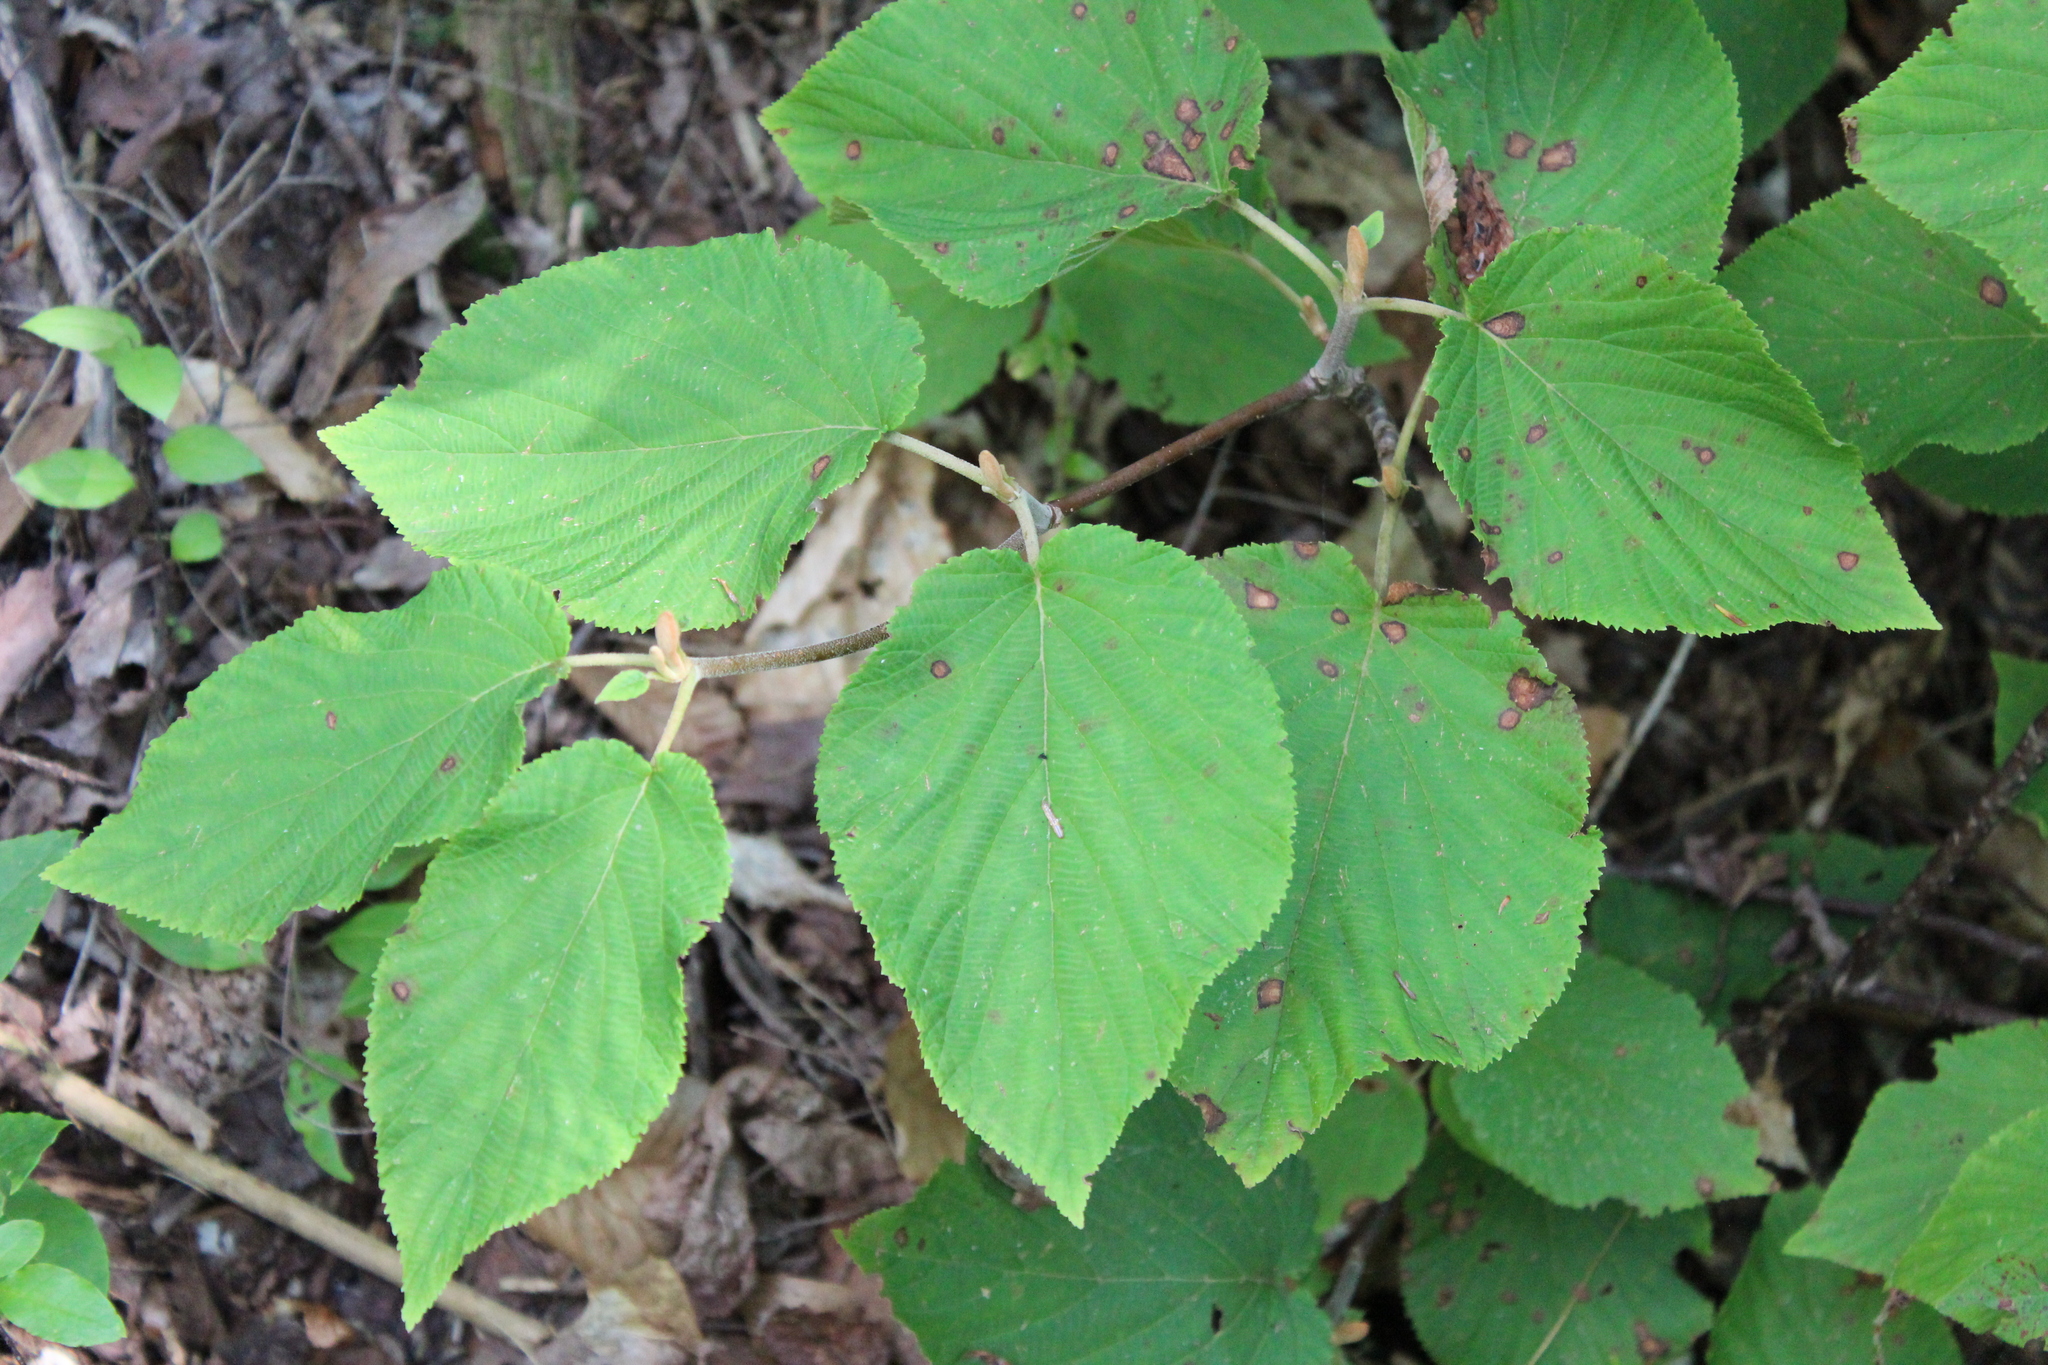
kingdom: Plantae
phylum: Tracheophyta
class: Magnoliopsida
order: Dipsacales
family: Viburnaceae
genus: Viburnum
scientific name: Viburnum lantanoides
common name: Hobblebush
